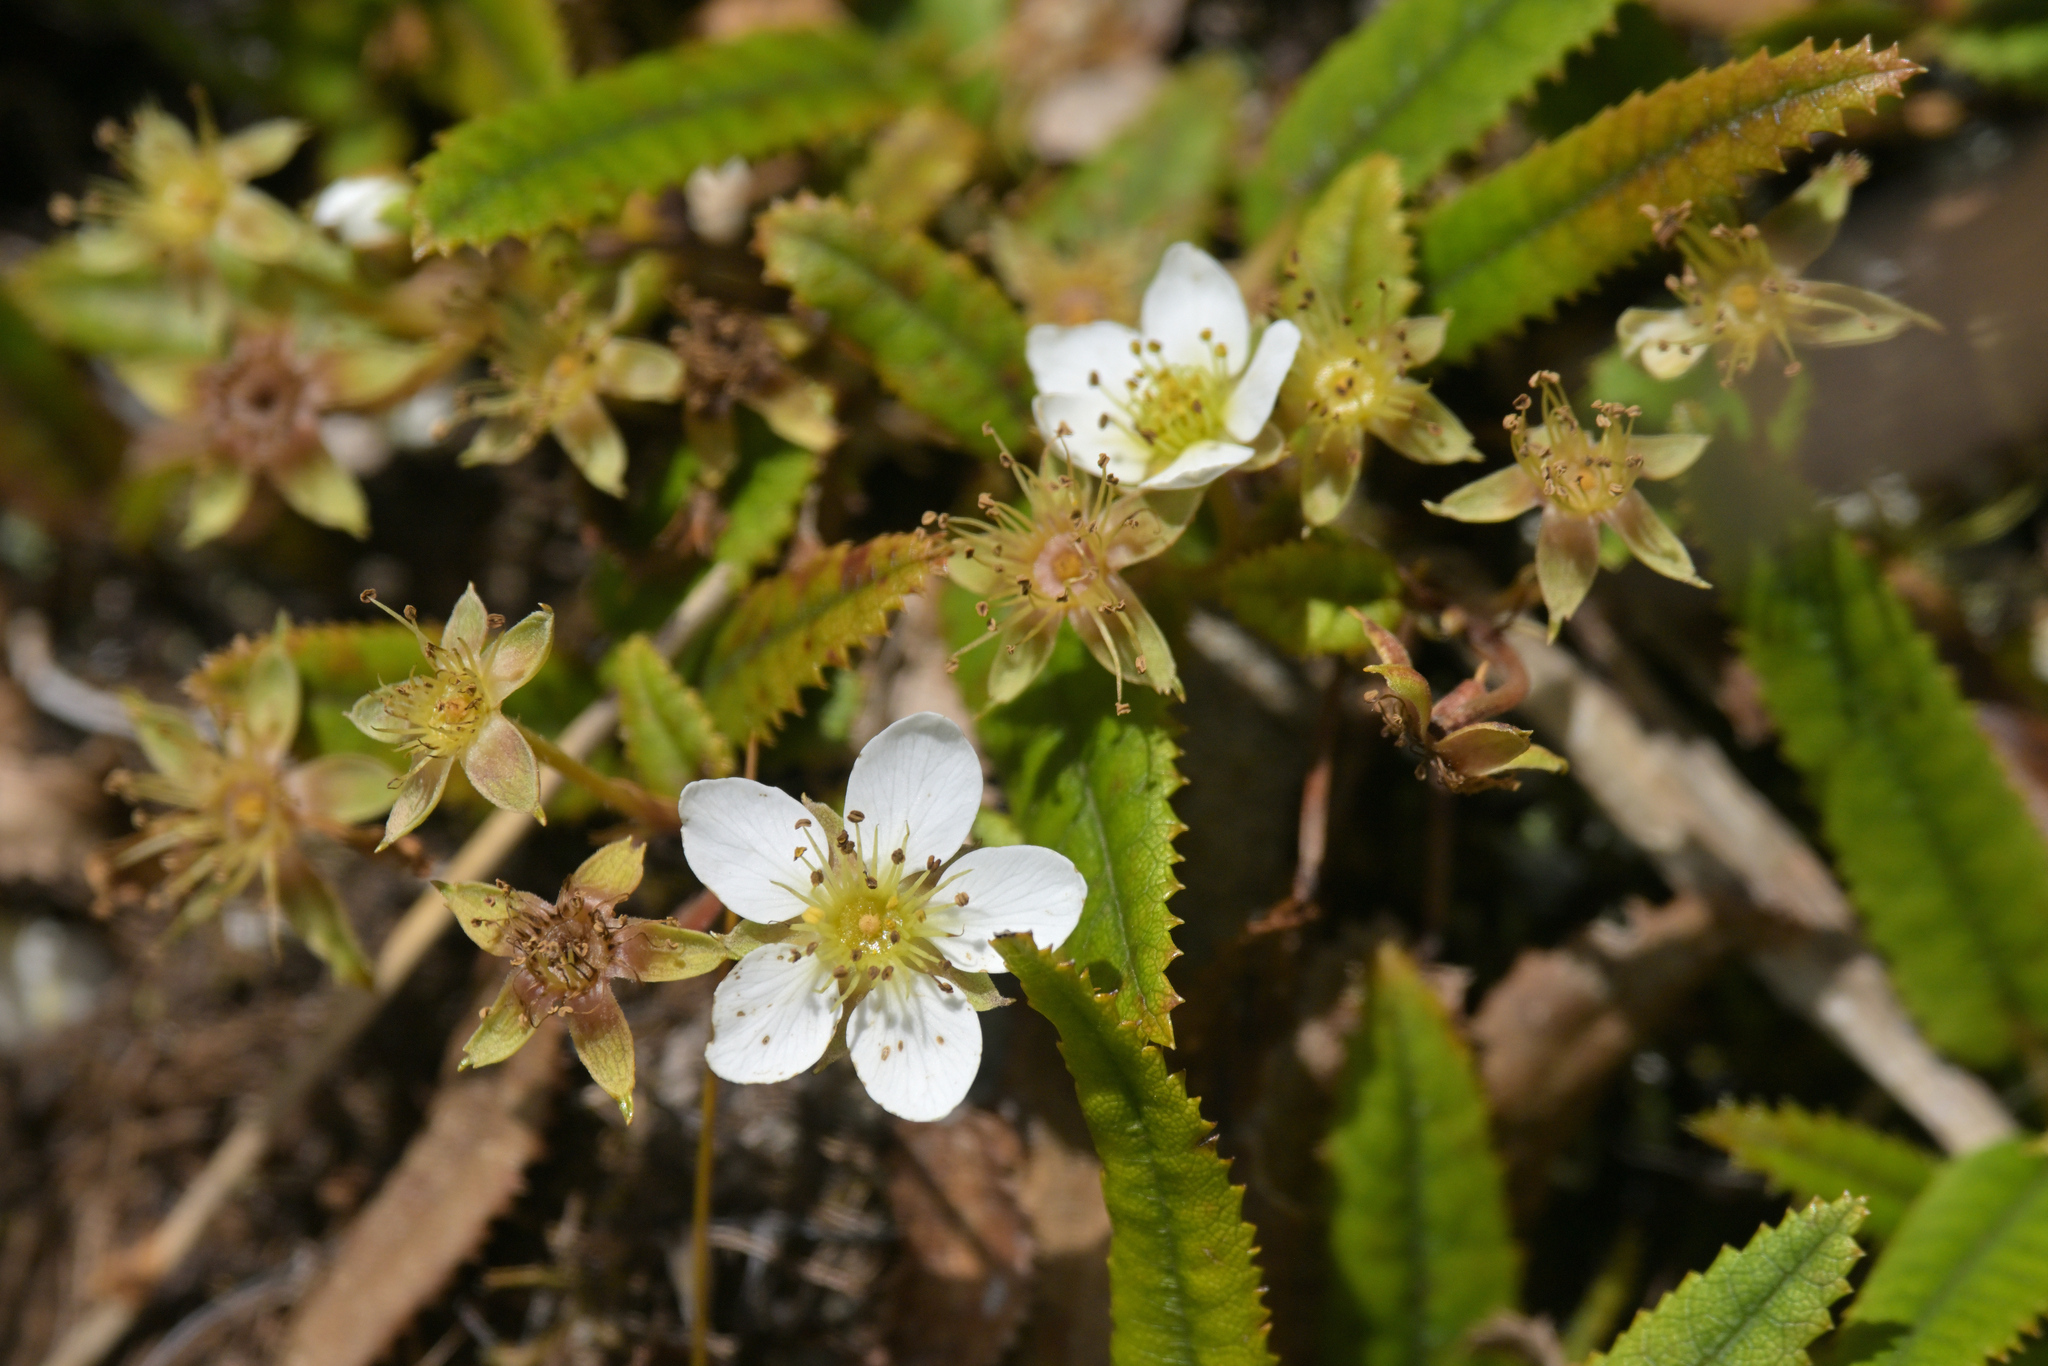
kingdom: Plantae
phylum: Tracheophyta
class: Magnoliopsida
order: Rosales
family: Rosaceae
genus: Rubus
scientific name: Rubus parvus
